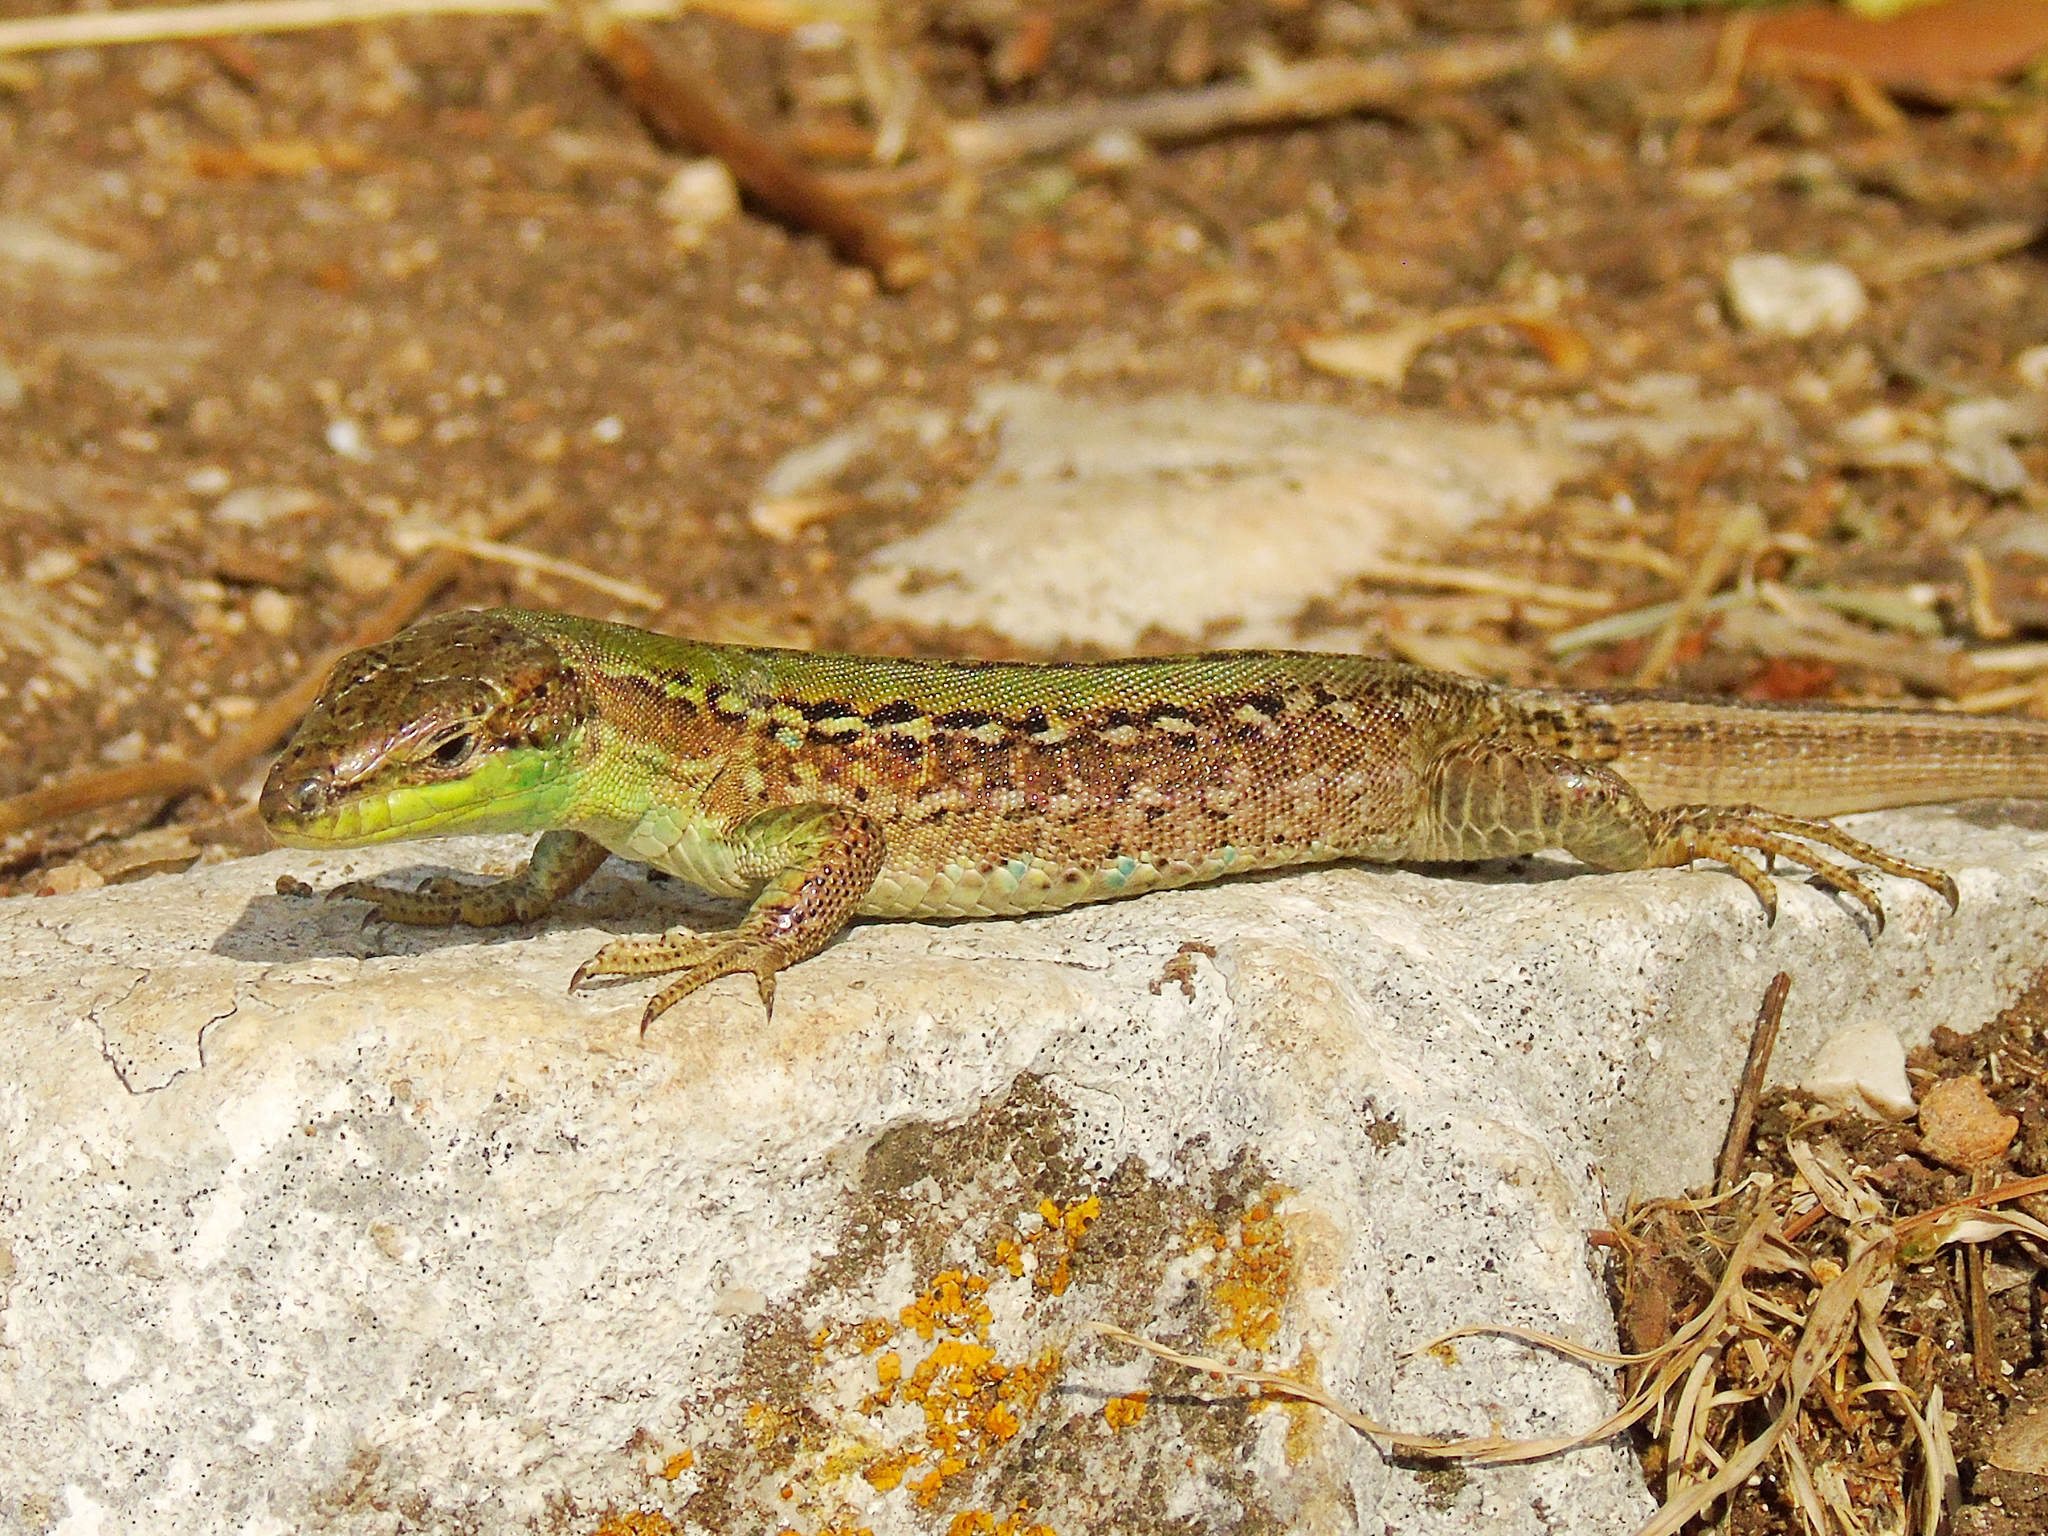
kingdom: Animalia
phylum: Chordata
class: Squamata
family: Lacertidae
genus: Podarcis
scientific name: Podarcis siculus
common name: Italian wall lizard
